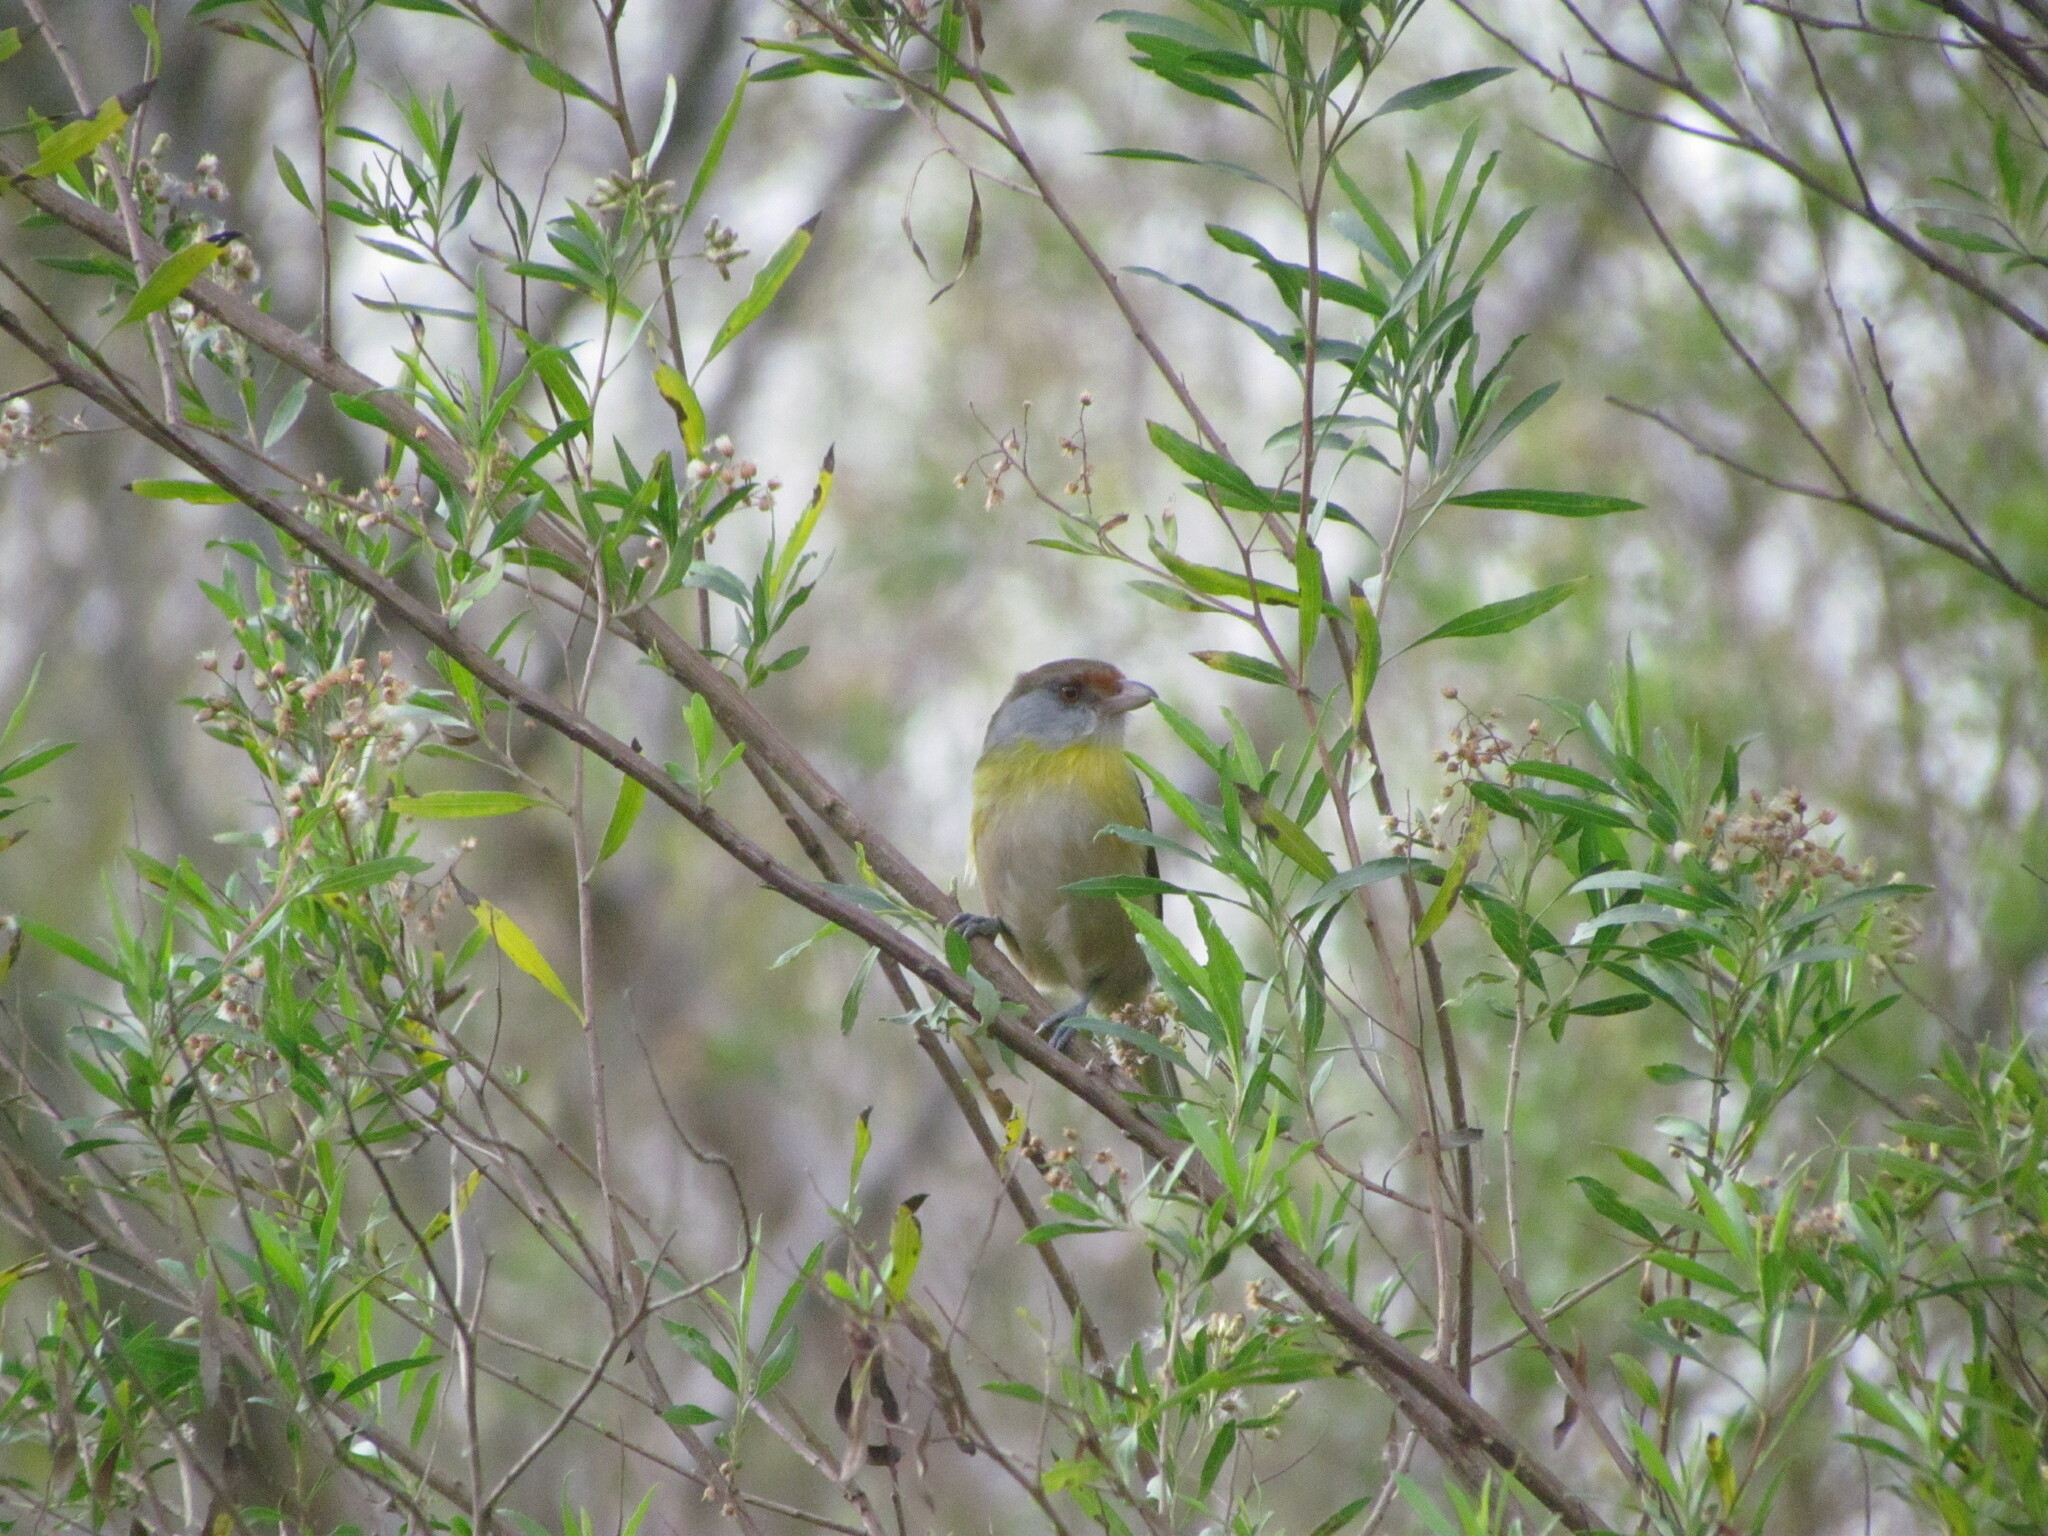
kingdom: Animalia
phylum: Chordata
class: Aves
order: Passeriformes
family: Vireonidae
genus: Cyclarhis
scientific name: Cyclarhis gujanensis
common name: Rufous-browed peppershrike
